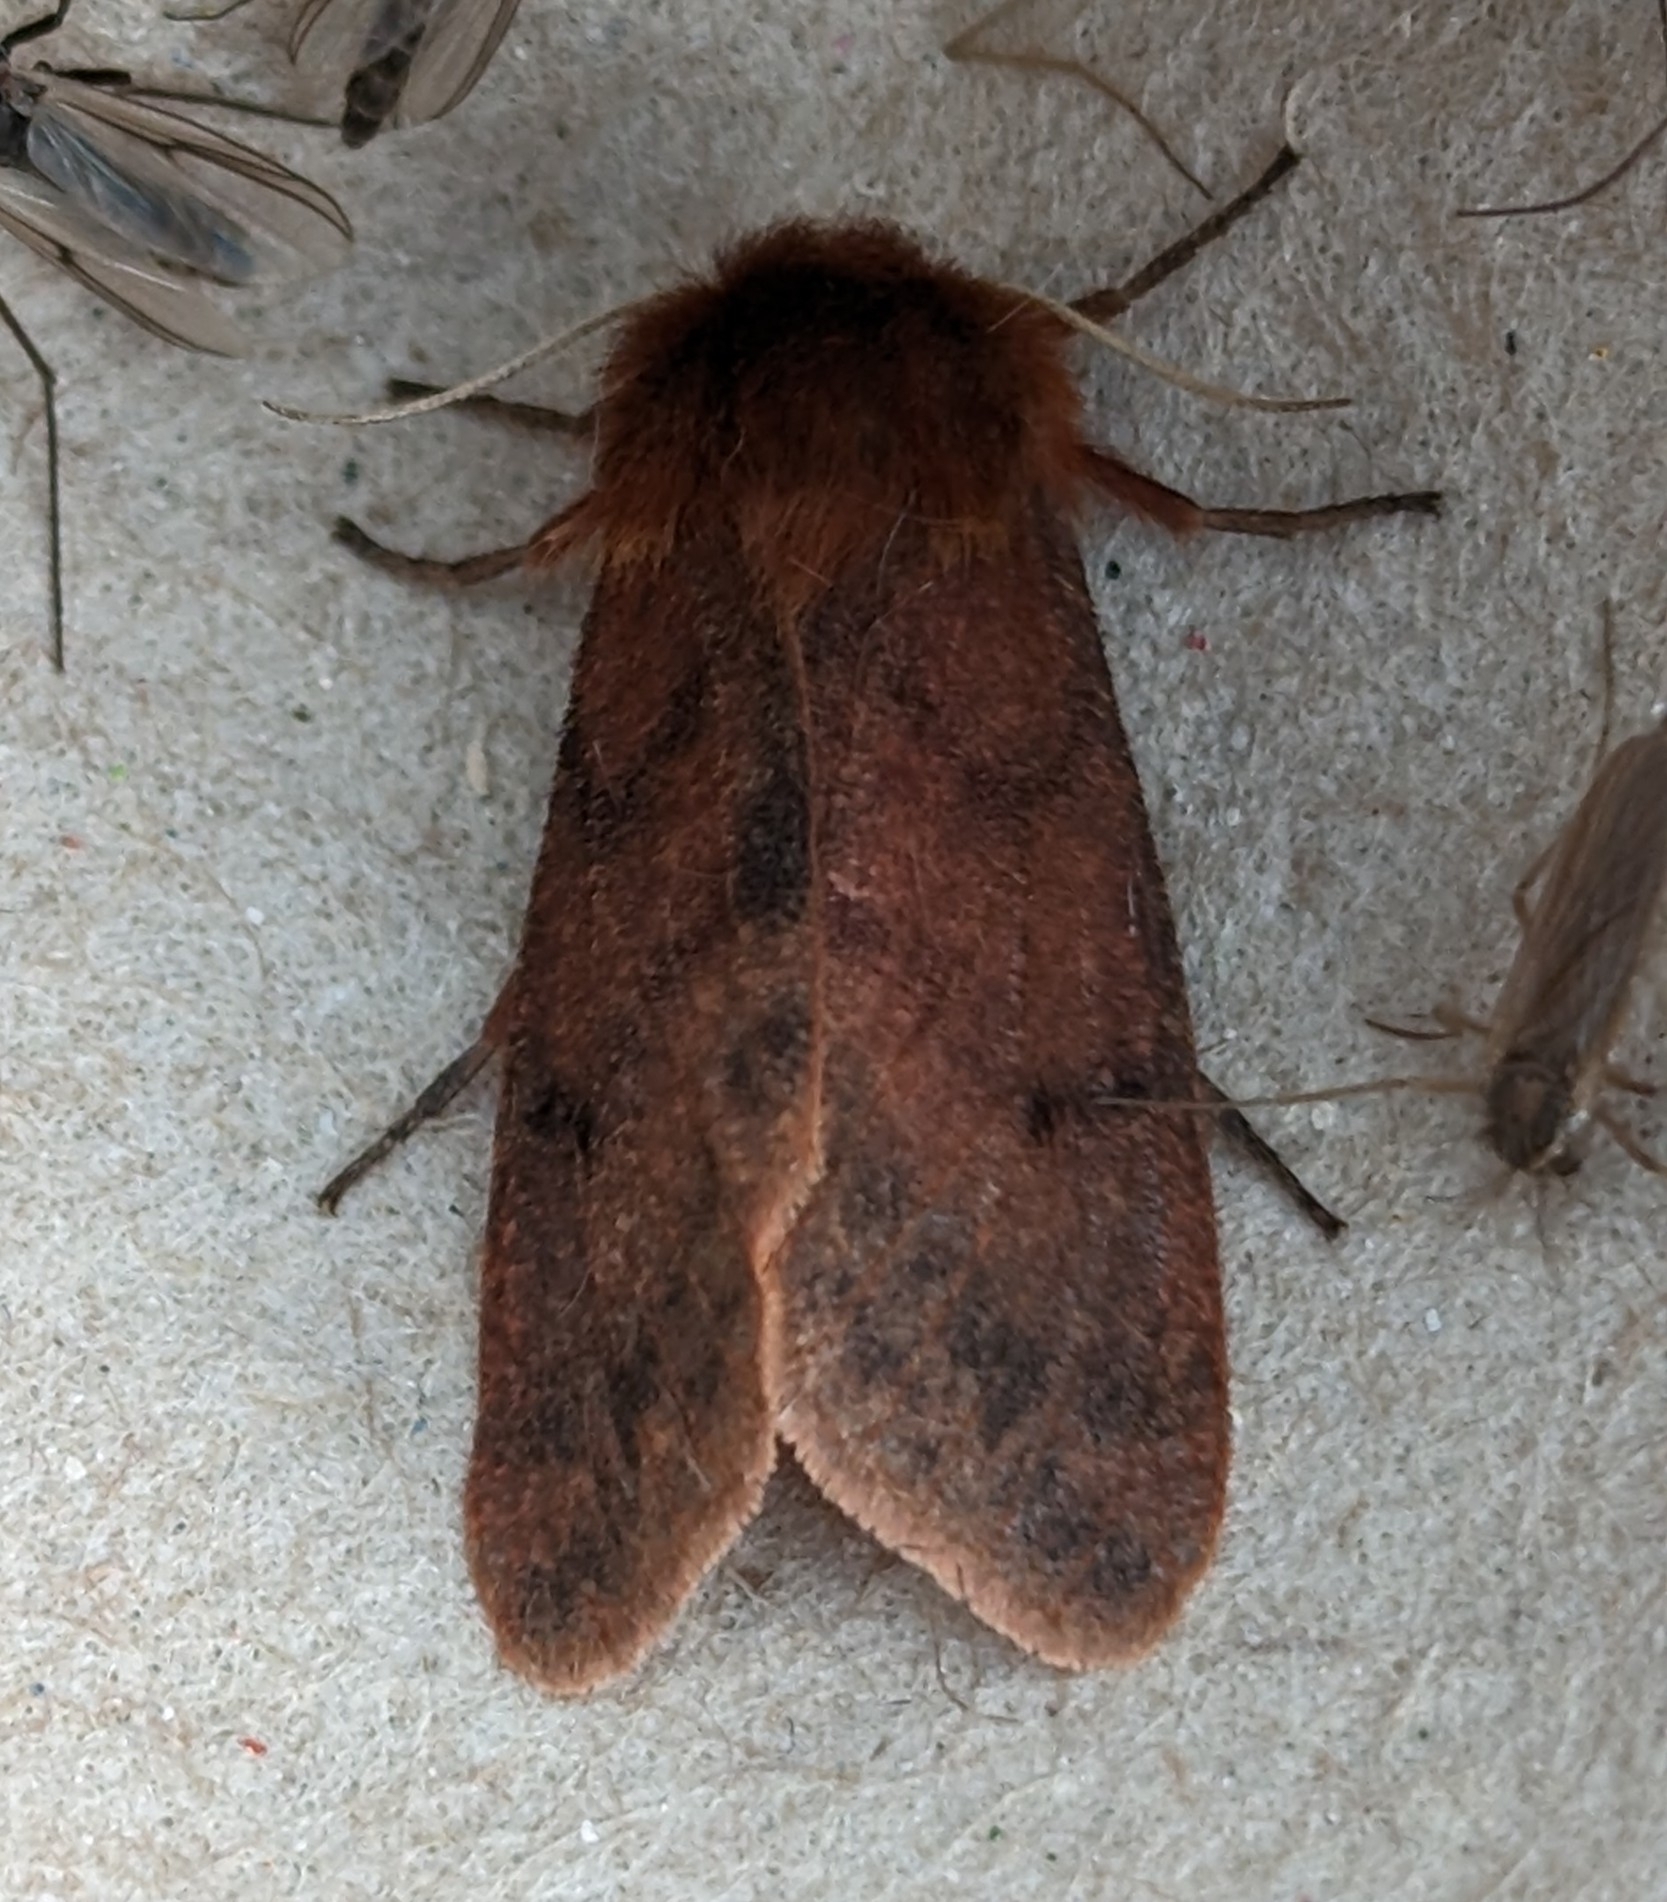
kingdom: Animalia
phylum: Arthropoda
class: Insecta
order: Lepidoptera
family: Erebidae
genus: Phragmatobia
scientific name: Phragmatobia assimilans
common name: Large ruby tiger moth
